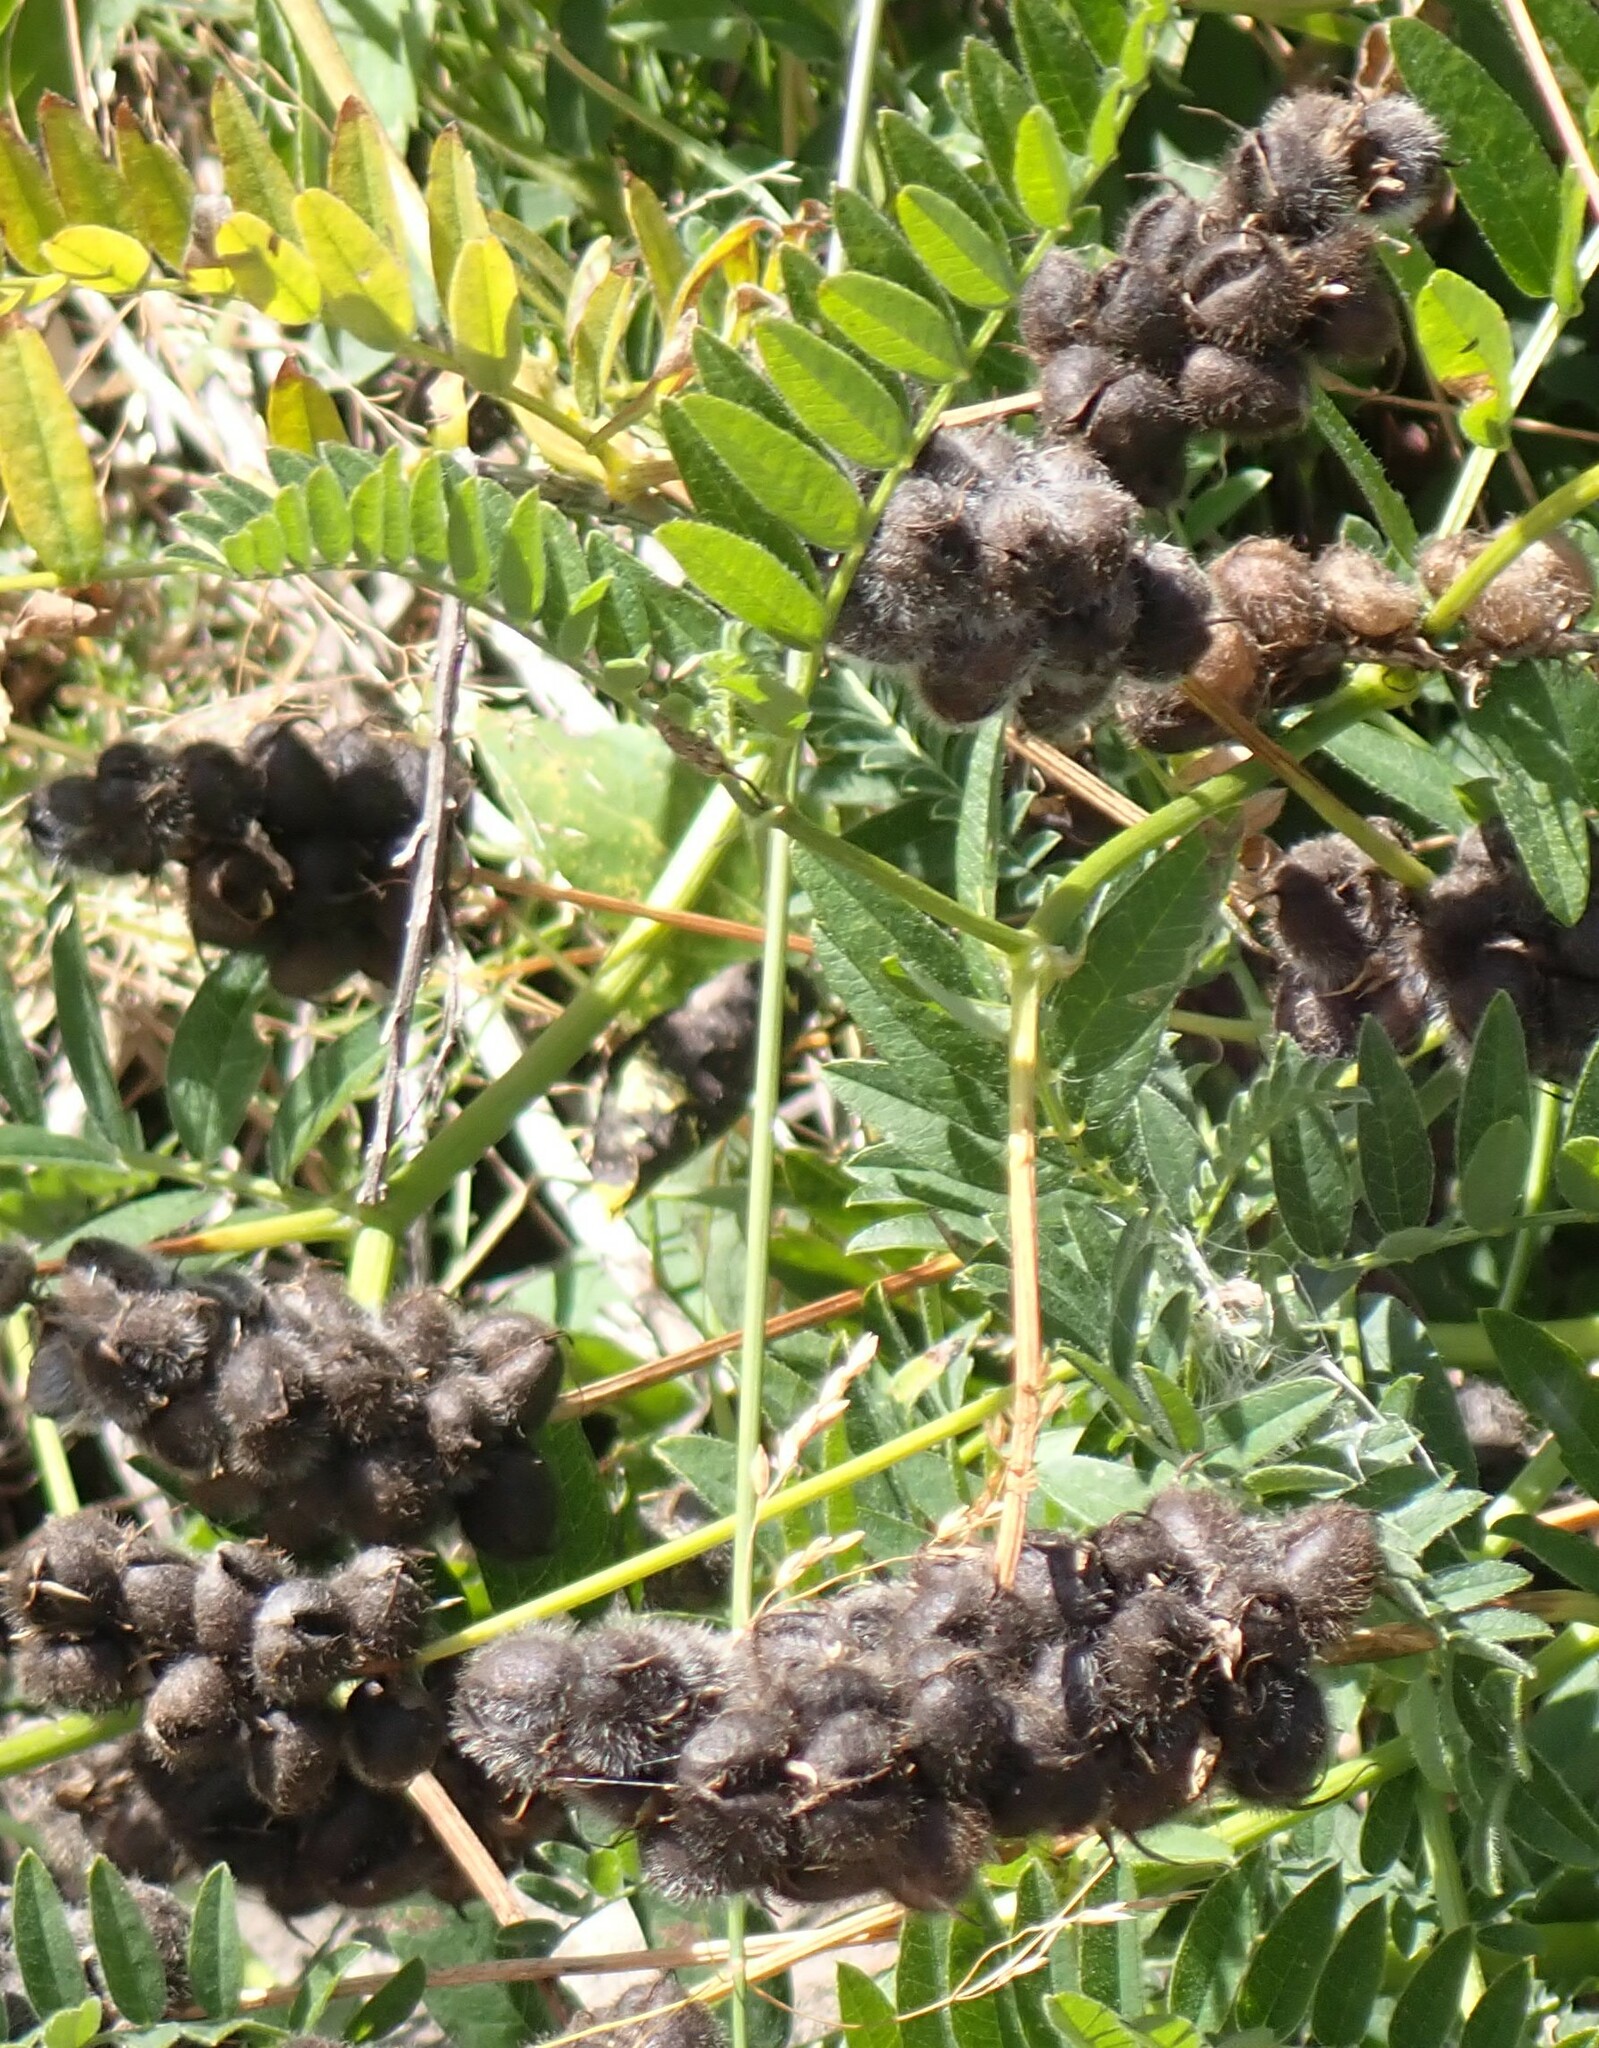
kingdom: Plantae
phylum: Tracheophyta
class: Magnoliopsida
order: Fabales
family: Fabaceae
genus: Astragalus
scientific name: Astragalus cicer
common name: Chick-pea milk-vetch
